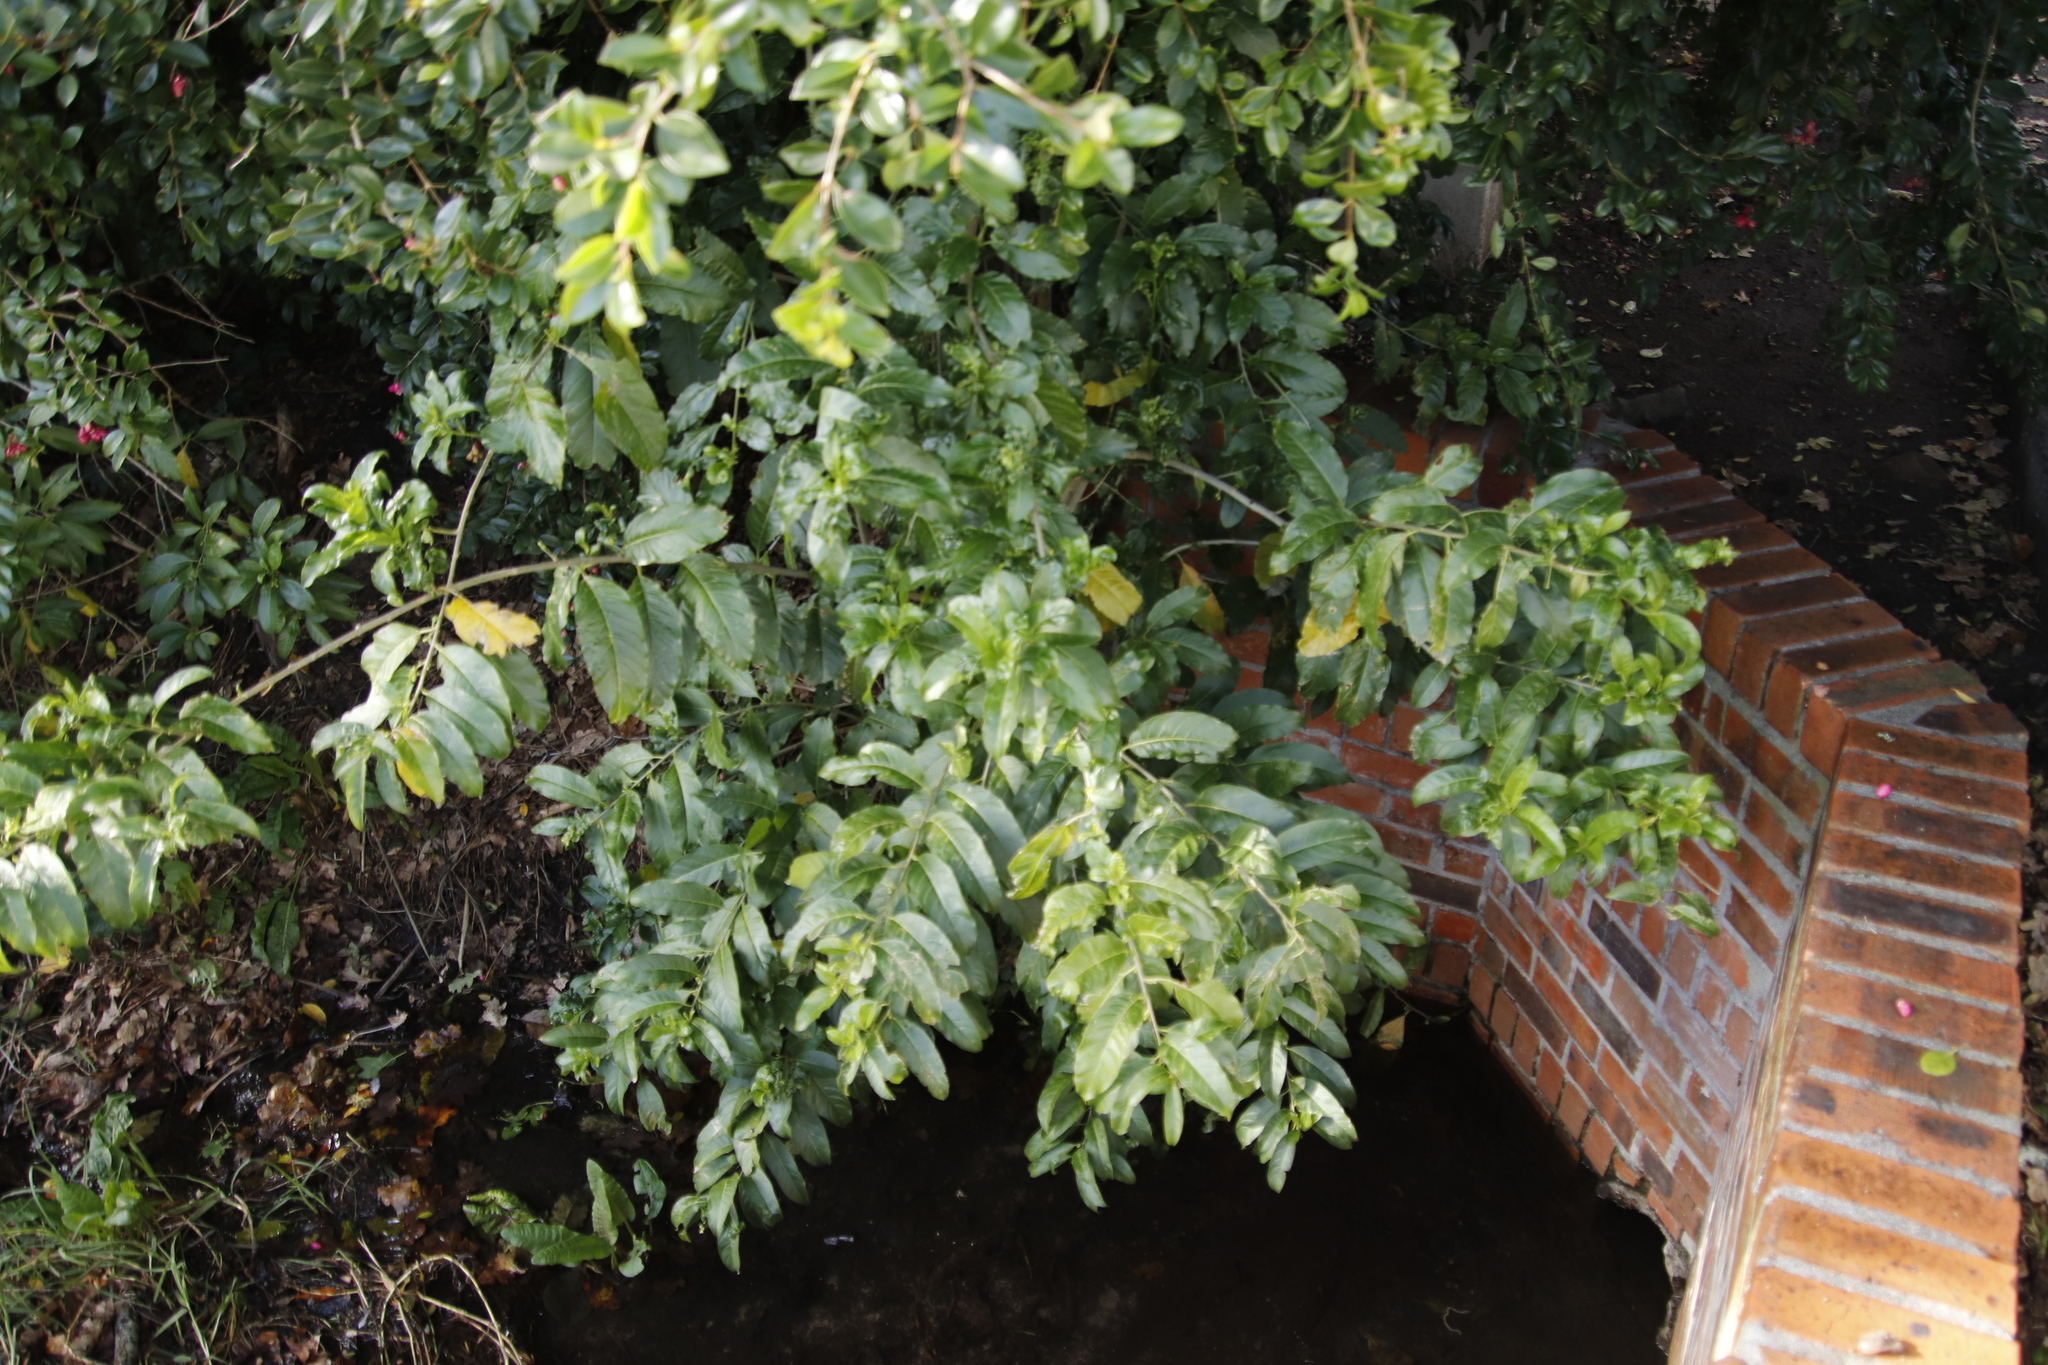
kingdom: Plantae
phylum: Tracheophyta
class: Magnoliopsida
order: Solanales
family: Solanaceae
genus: Cestrum
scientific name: Cestrum laevigatum
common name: Inkberry
